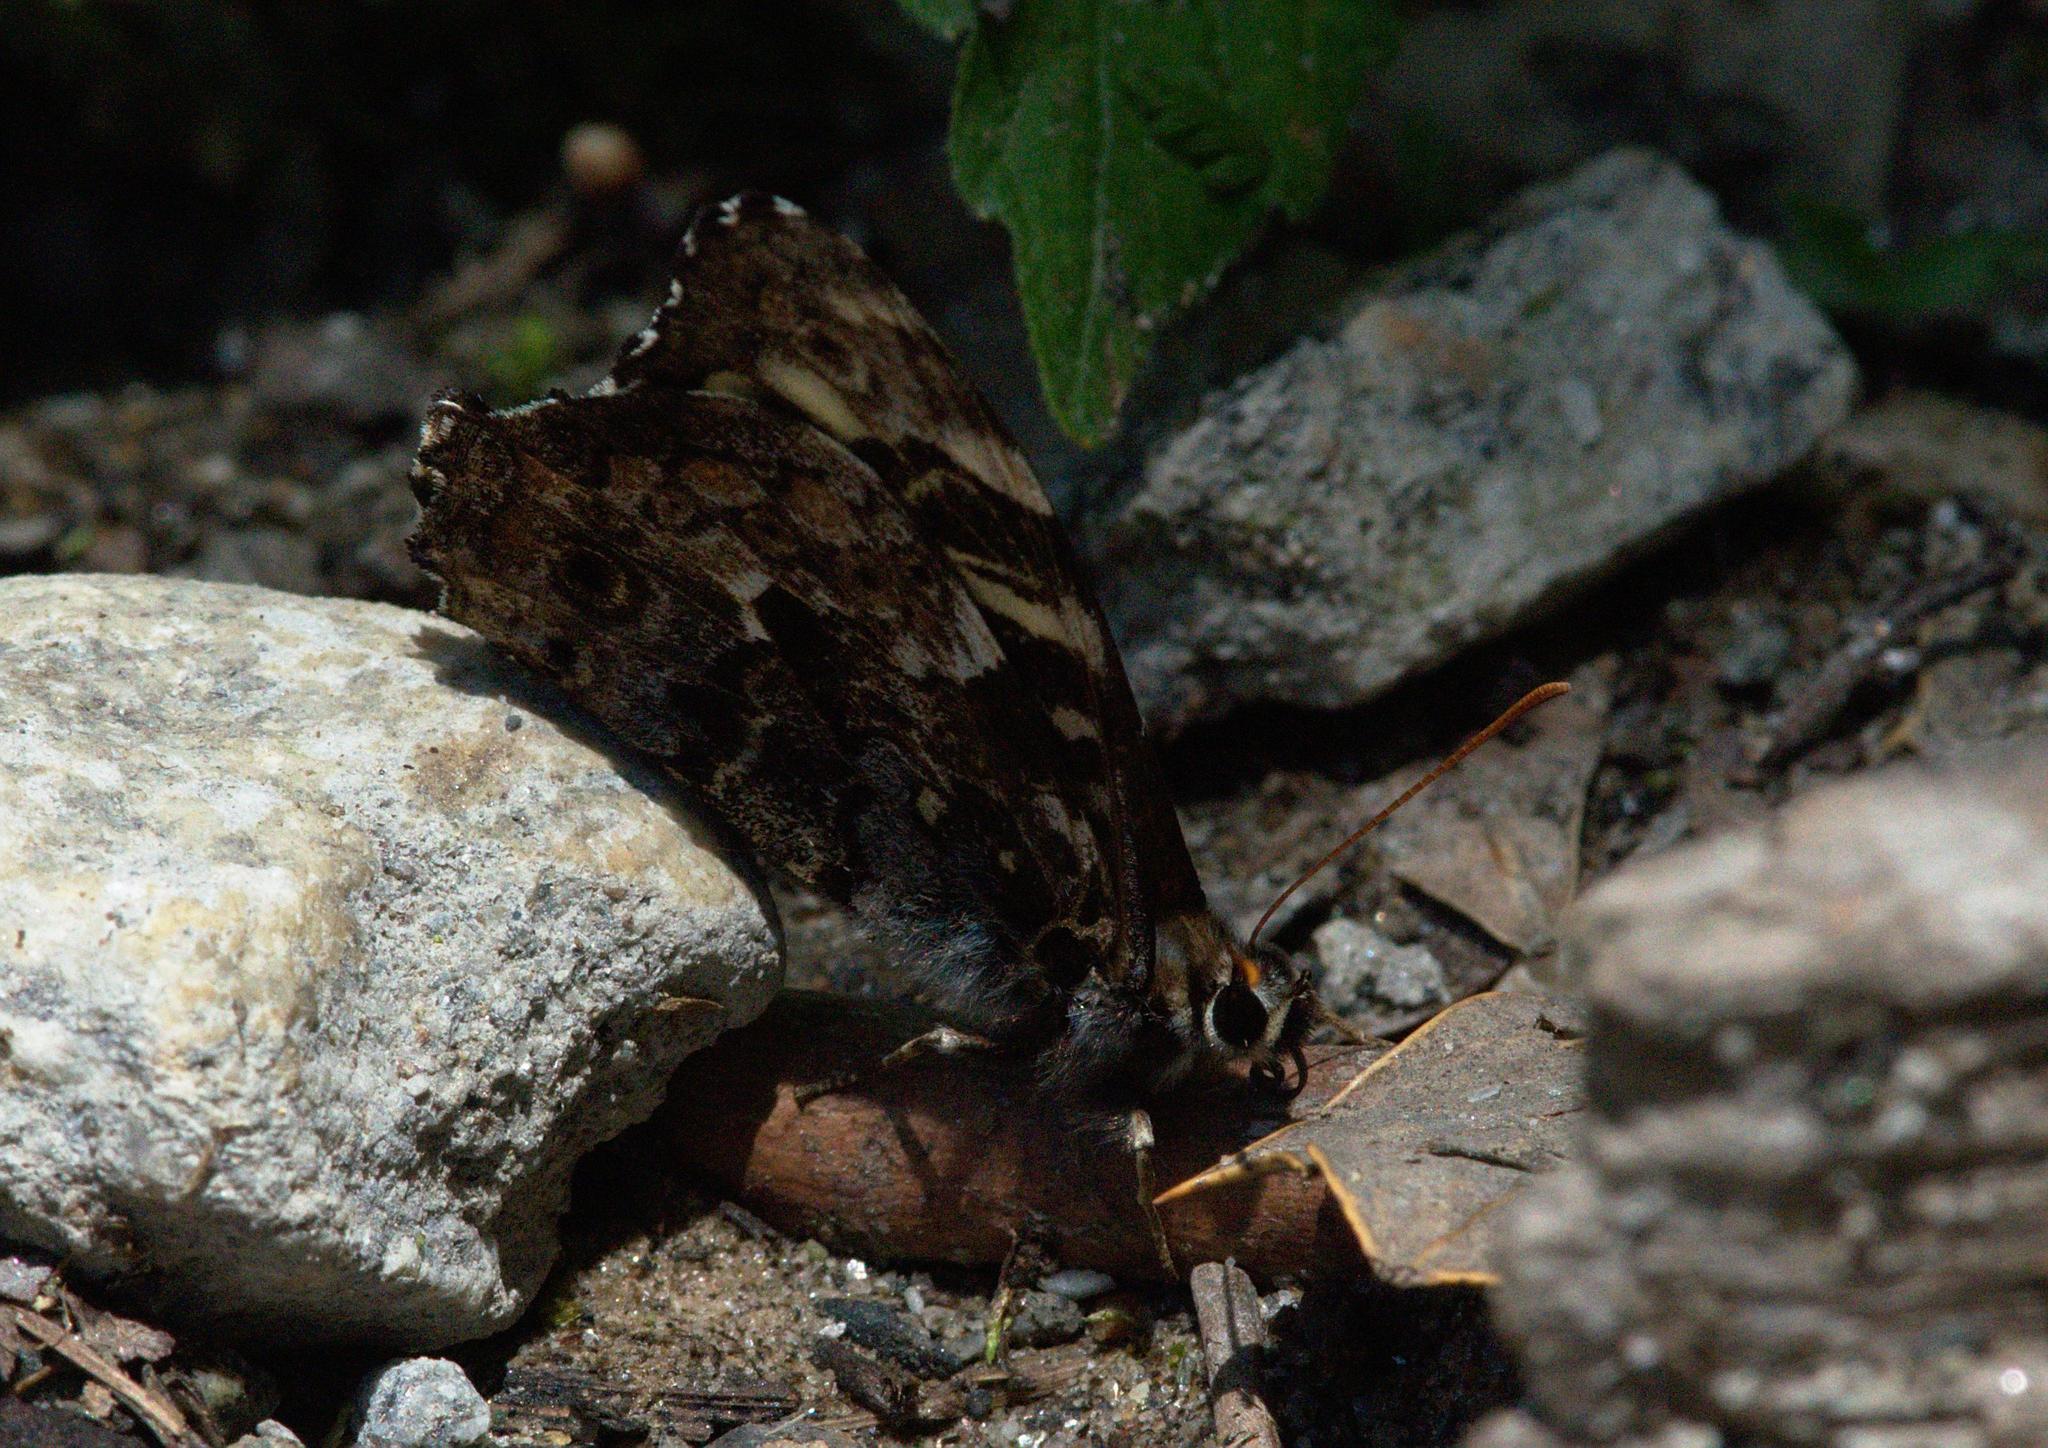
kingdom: Animalia
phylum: Arthropoda
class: Insecta
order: Lepidoptera
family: Nymphalidae
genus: Neope
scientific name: Neope pulaha
